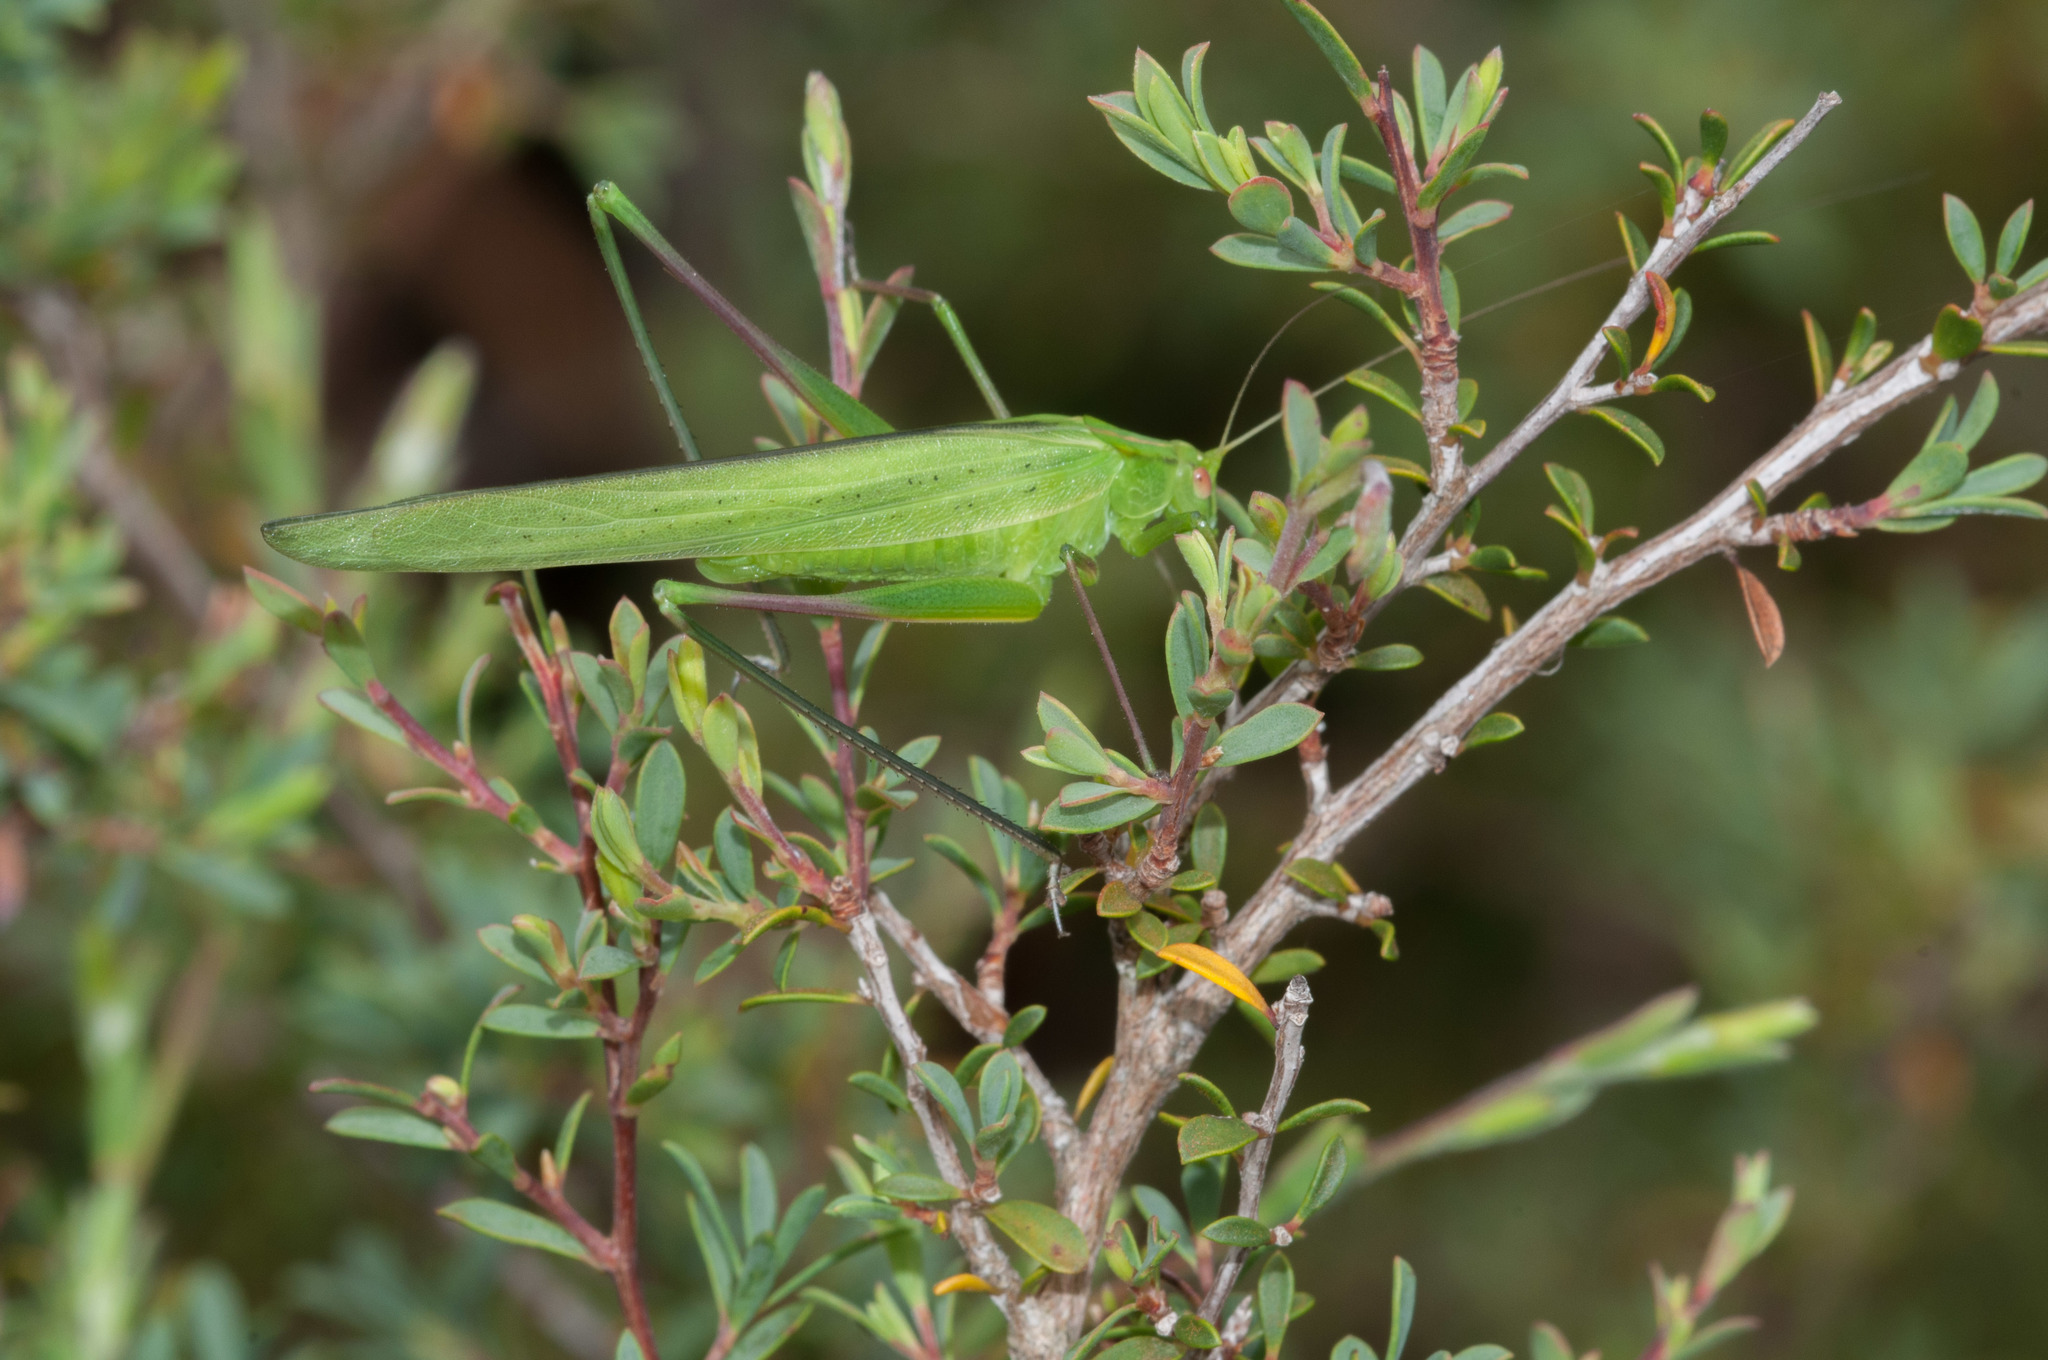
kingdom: Animalia
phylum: Arthropoda
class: Insecta
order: Orthoptera
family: Tettigoniidae
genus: Polichne
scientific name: Polichne parvicauda
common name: Short tailed polichene
